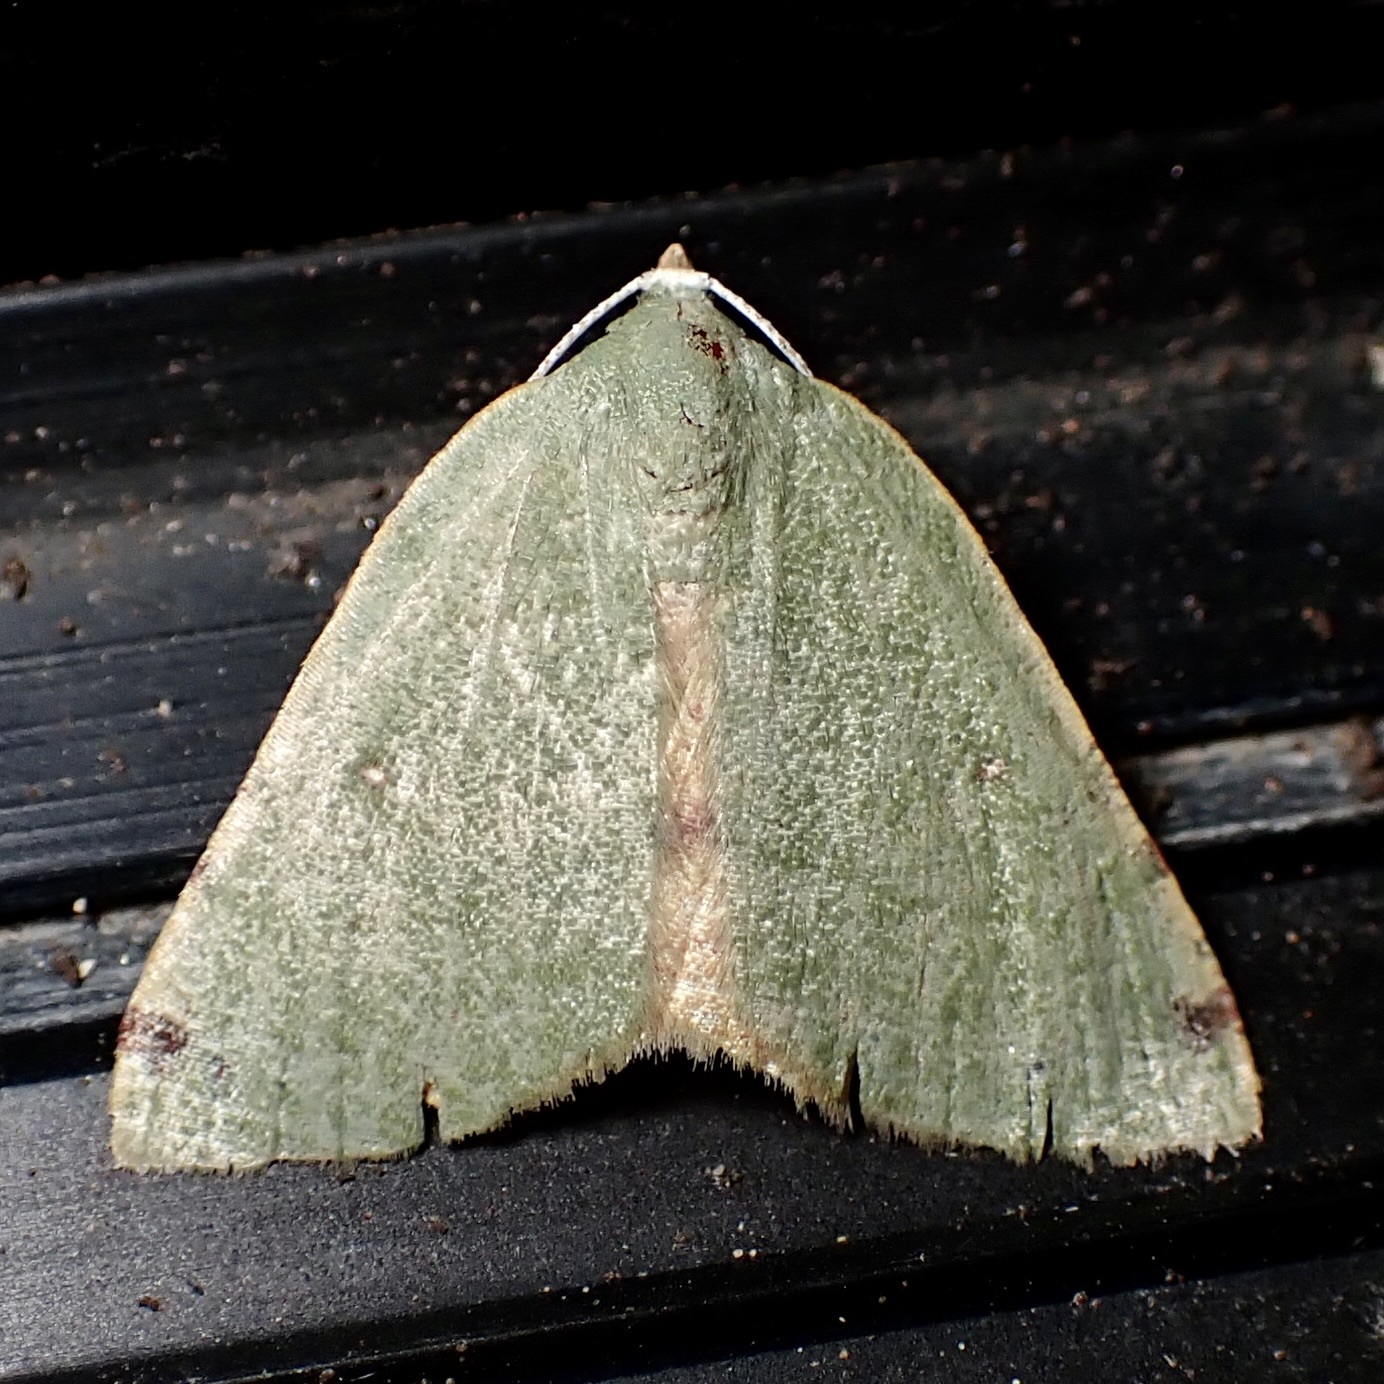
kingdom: Animalia
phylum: Arthropoda
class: Insecta
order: Lepidoptera
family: Geometridae
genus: Chloraspilates
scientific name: Chloraspilates bicoloraria
